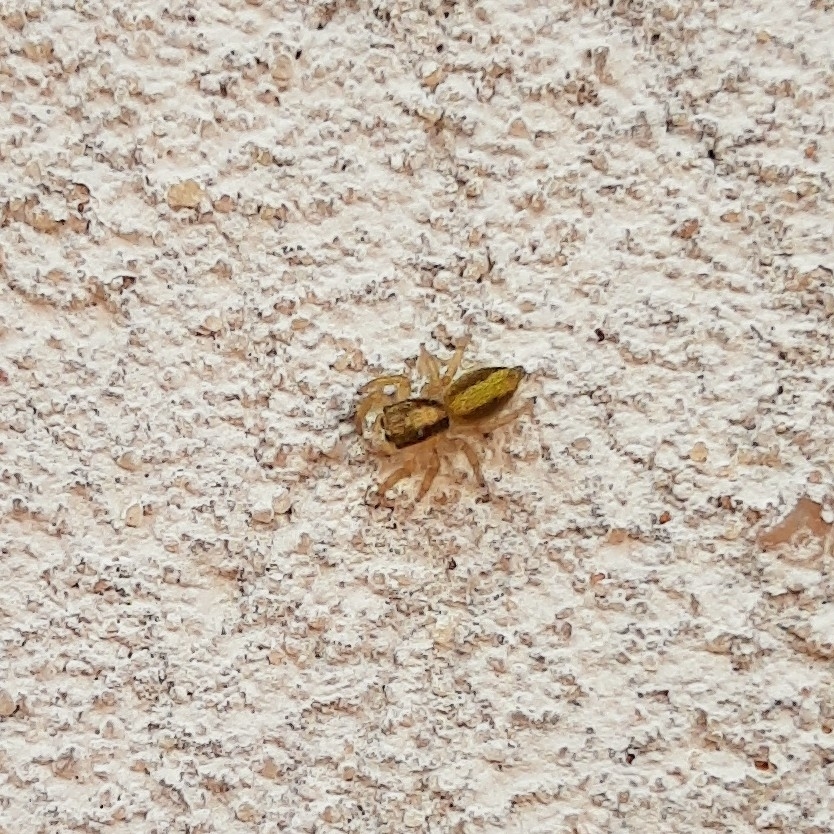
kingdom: Animalia
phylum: Arthropoda
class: Arachnida
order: Araneae
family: Salticidae
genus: Megafreya
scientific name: Megafreya sutrix
